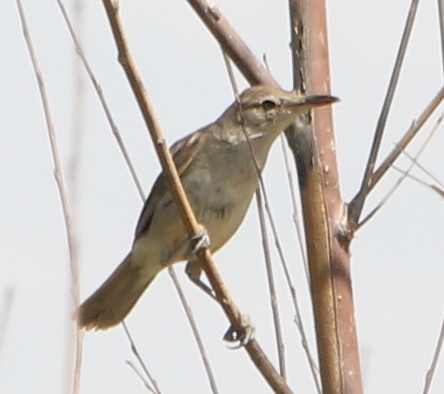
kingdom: Animalia
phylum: Chordata
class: Aves
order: Passeriformes
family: Acrocephalidae
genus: Acrocephalus
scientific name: Acrocephalus stentoreus
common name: Clamorous reed warbler
